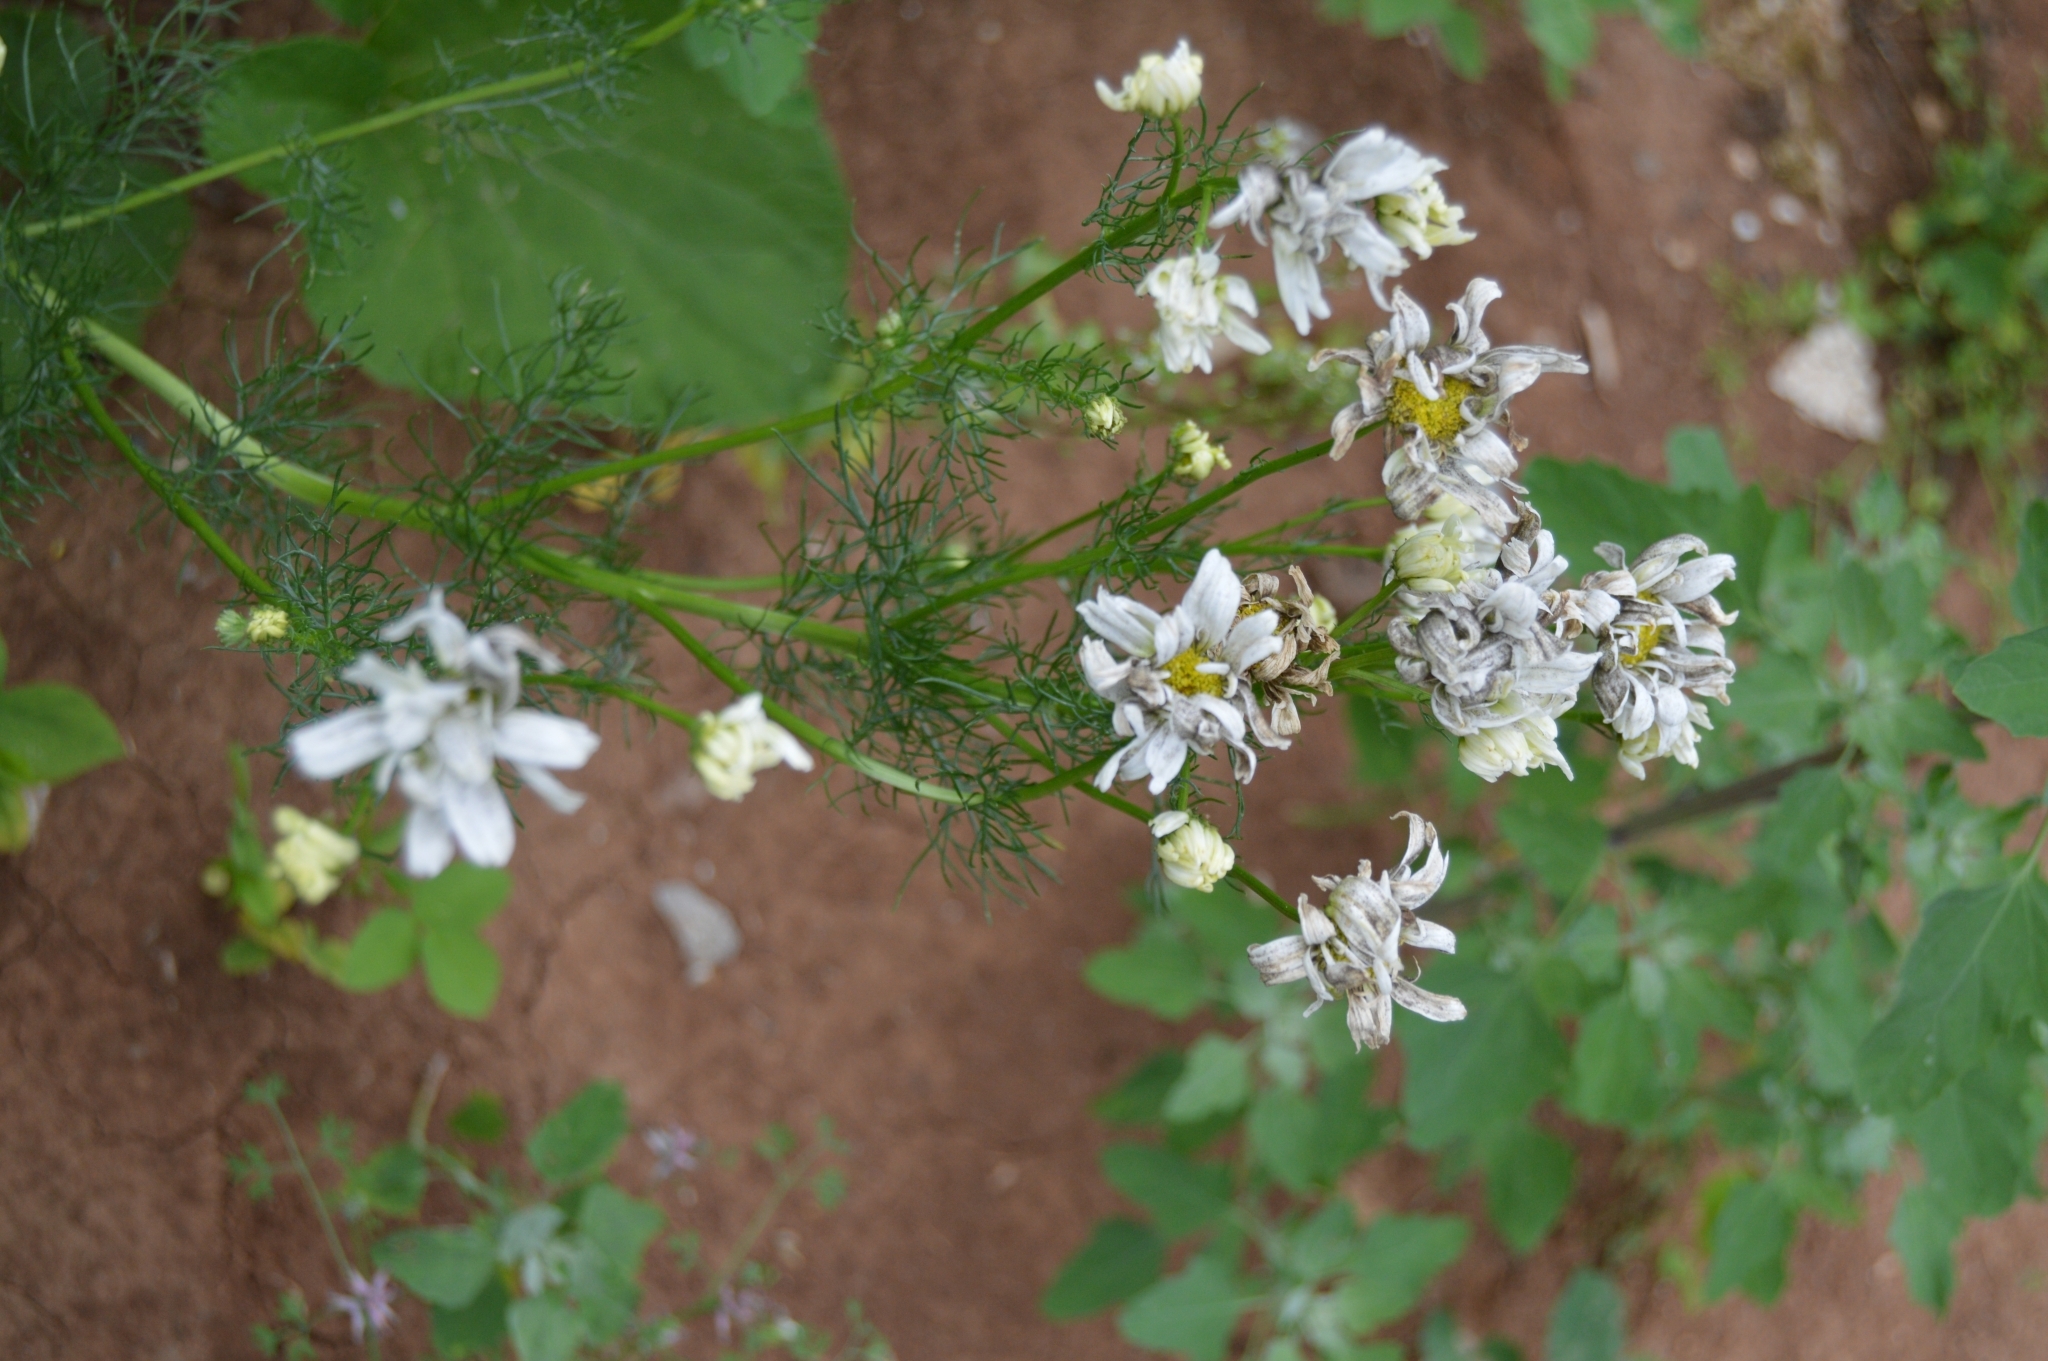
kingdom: Plantae
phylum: Tracheophyta
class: Magnoliopsida
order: Asterales
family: Asteraceae
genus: Tripleurospermum
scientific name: Tripleurospermum inodorum
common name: Scentless mayweed
